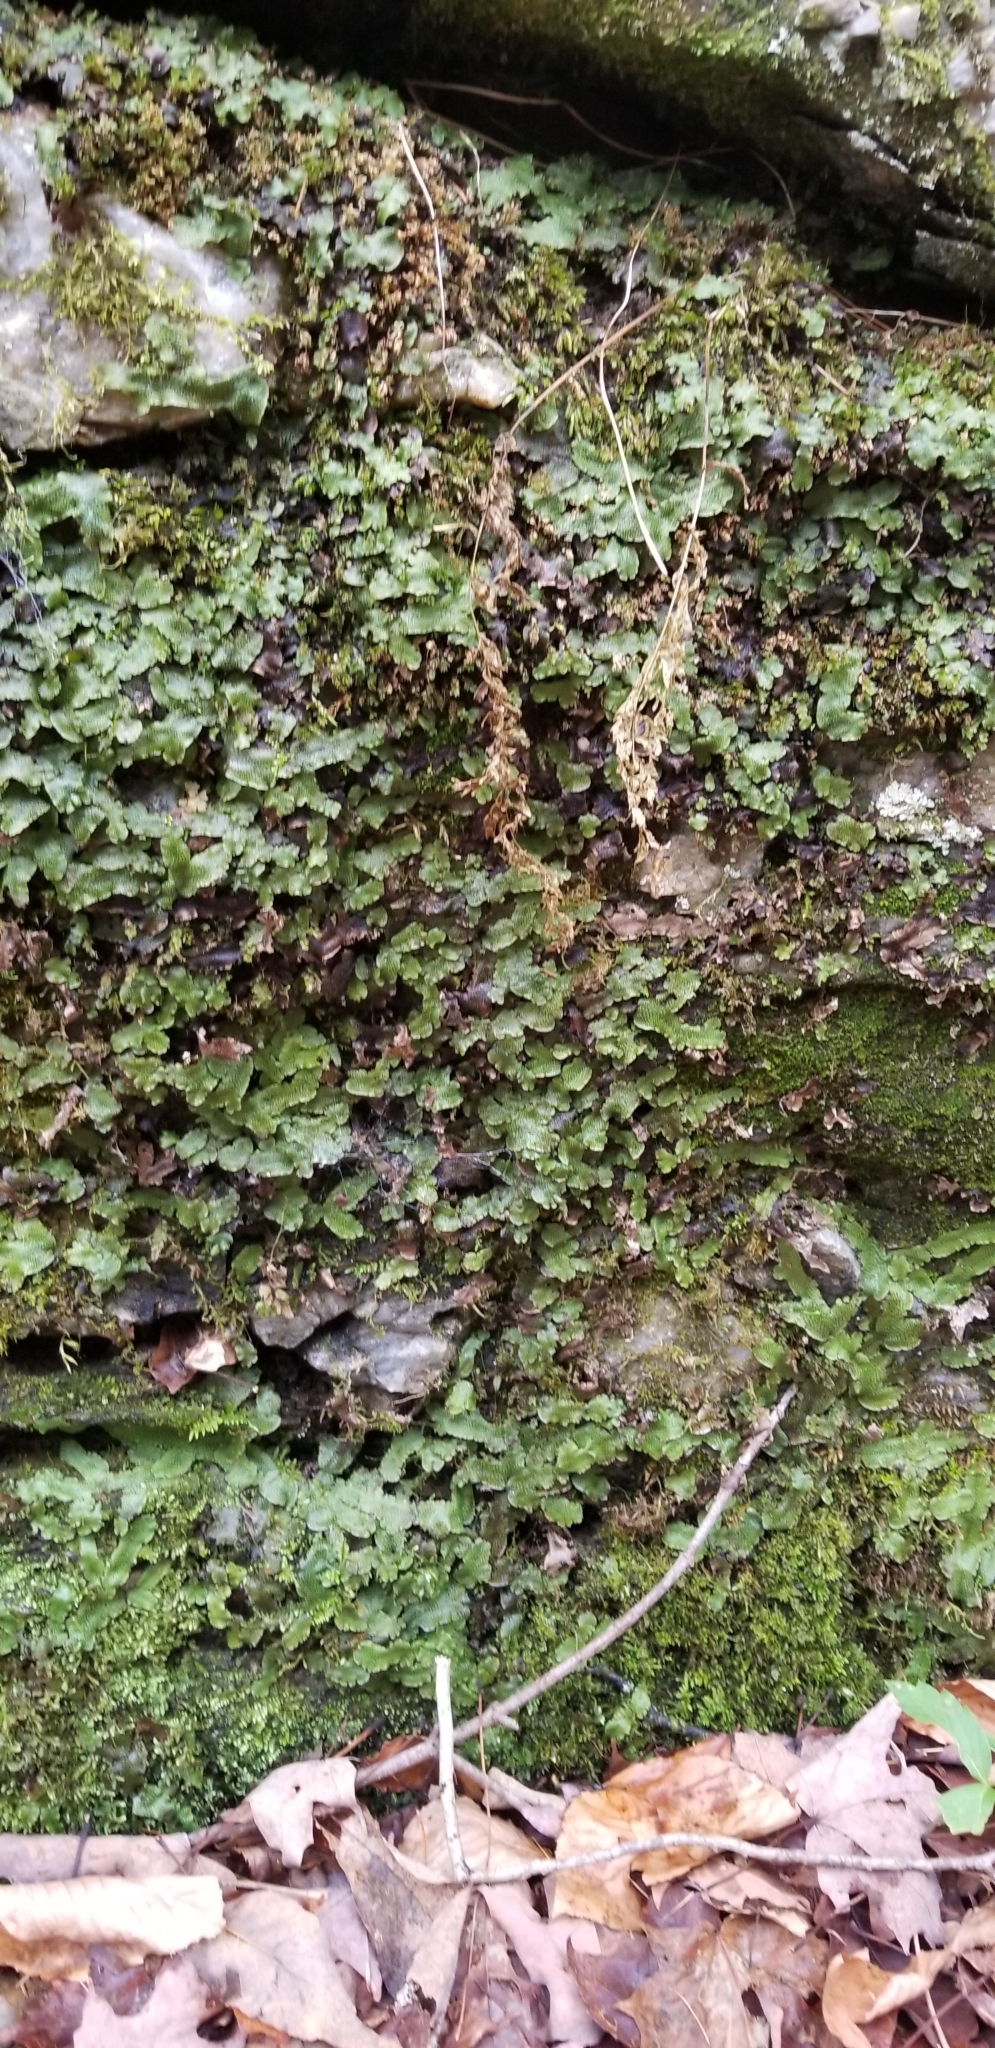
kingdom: Plantae
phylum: Marchantiophyta
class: Marchantiopsida
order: Marchantiales
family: Conocephalaceae
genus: Conocephalum
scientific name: Conocephalum salebrosum
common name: Cat-tongue liverwort
